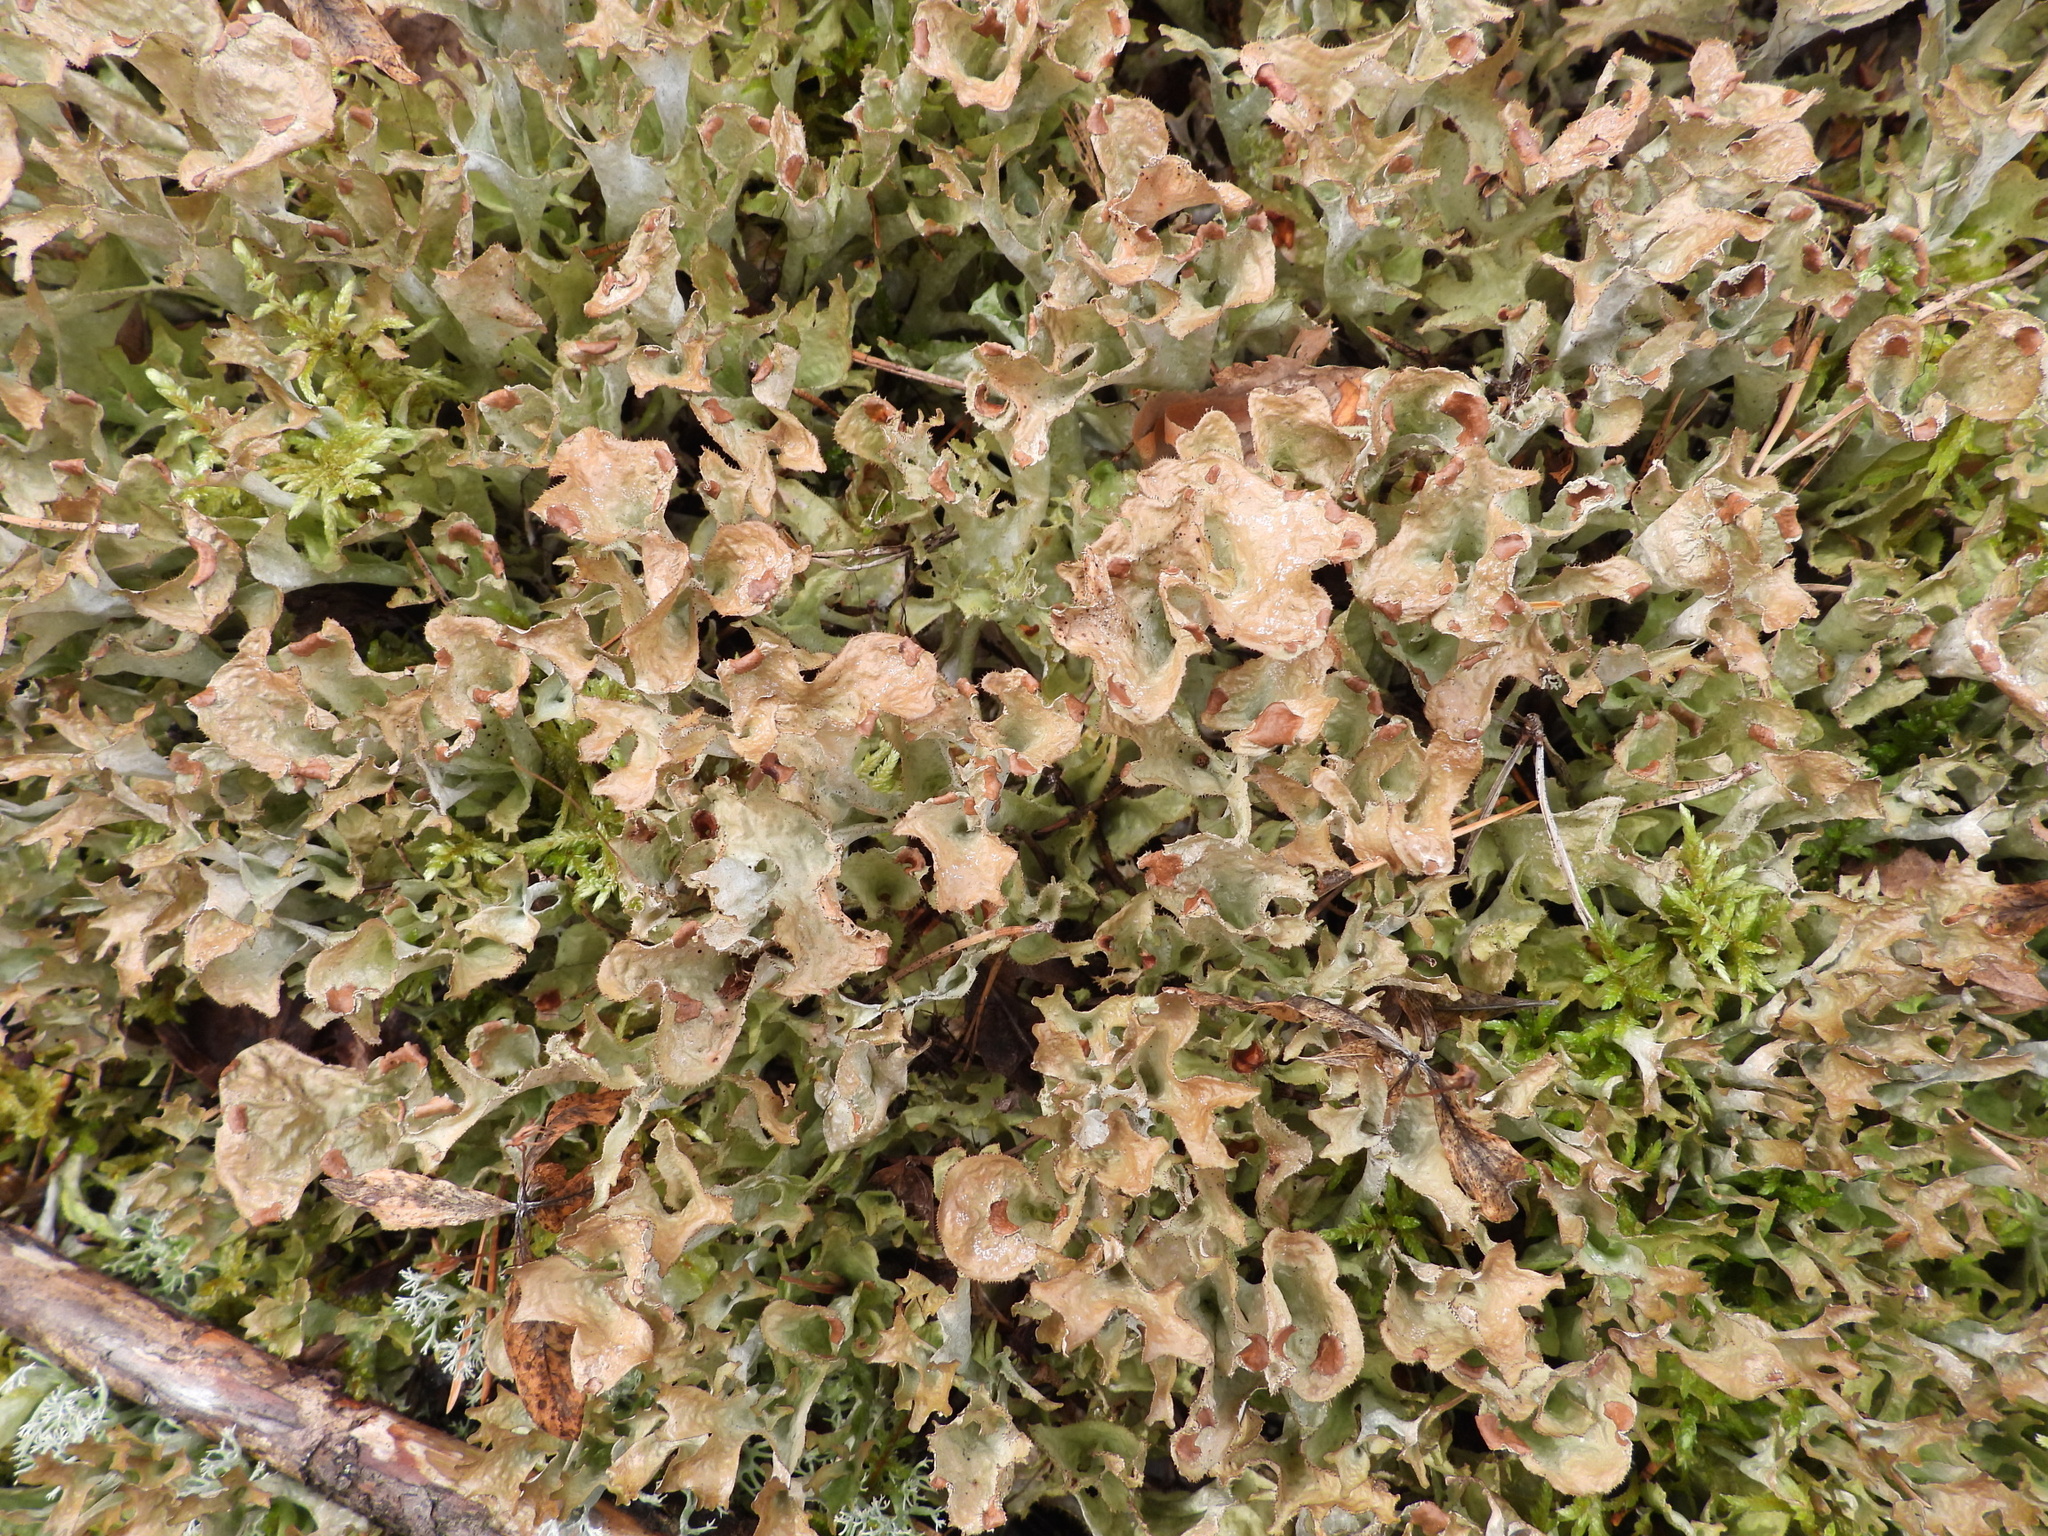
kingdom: Fungi
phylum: Ascomycota
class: Lecanoromycetes
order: Lecanorales
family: Parmeliaceae
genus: Cetraria
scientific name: Cetraria islandica
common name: Iceland lichen
